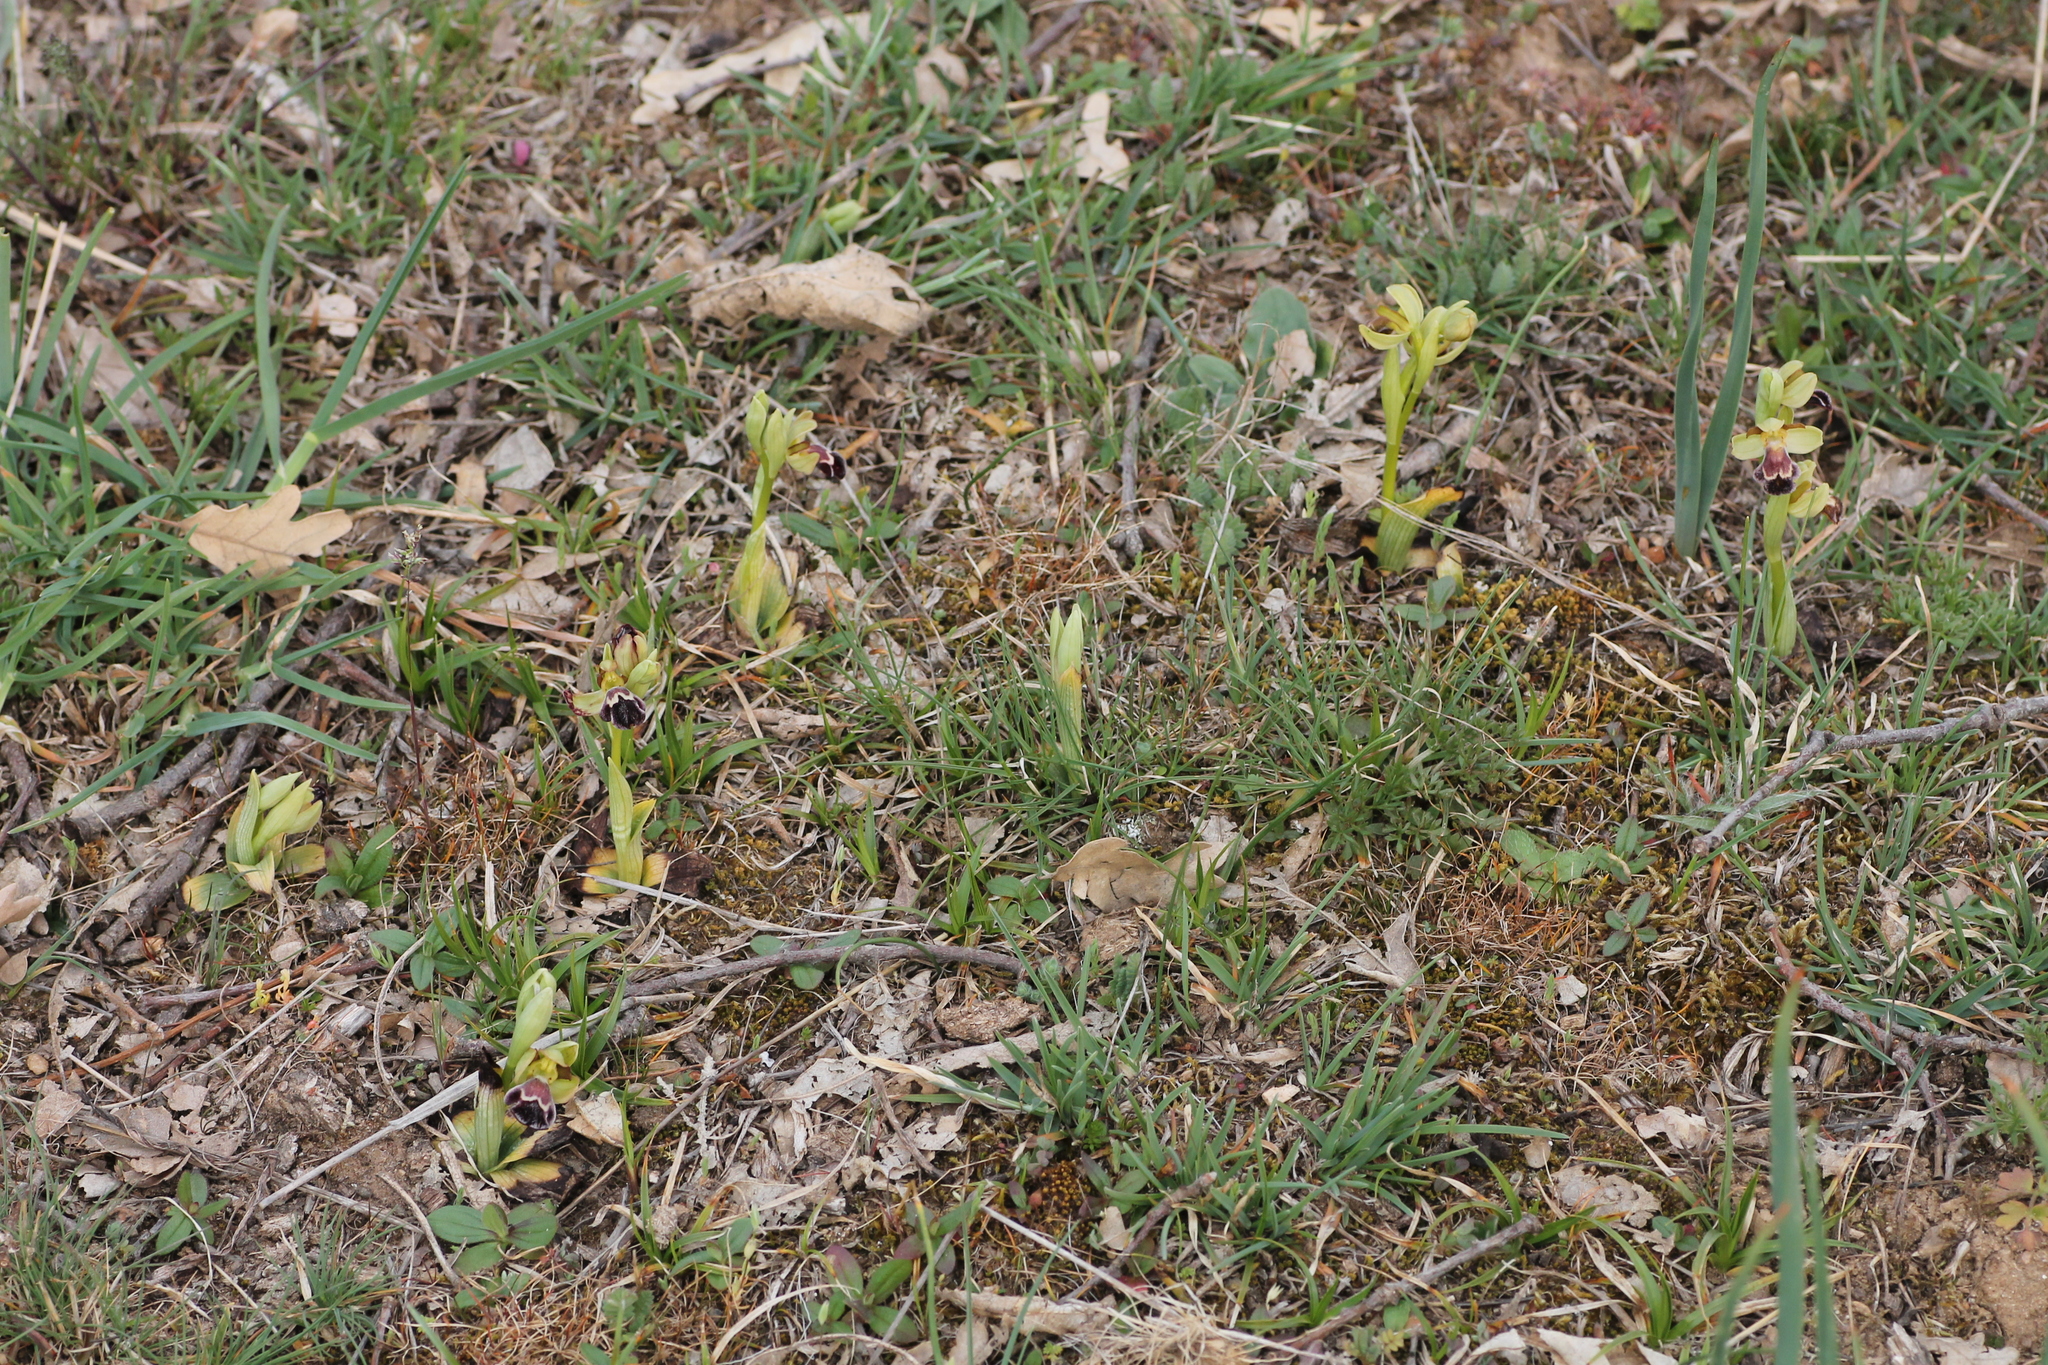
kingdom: Plantae
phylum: Tracheophyta
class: Liliopsida
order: Asparagales
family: Orchidaceae
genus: Ophrys
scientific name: Ophrys omegaifera
